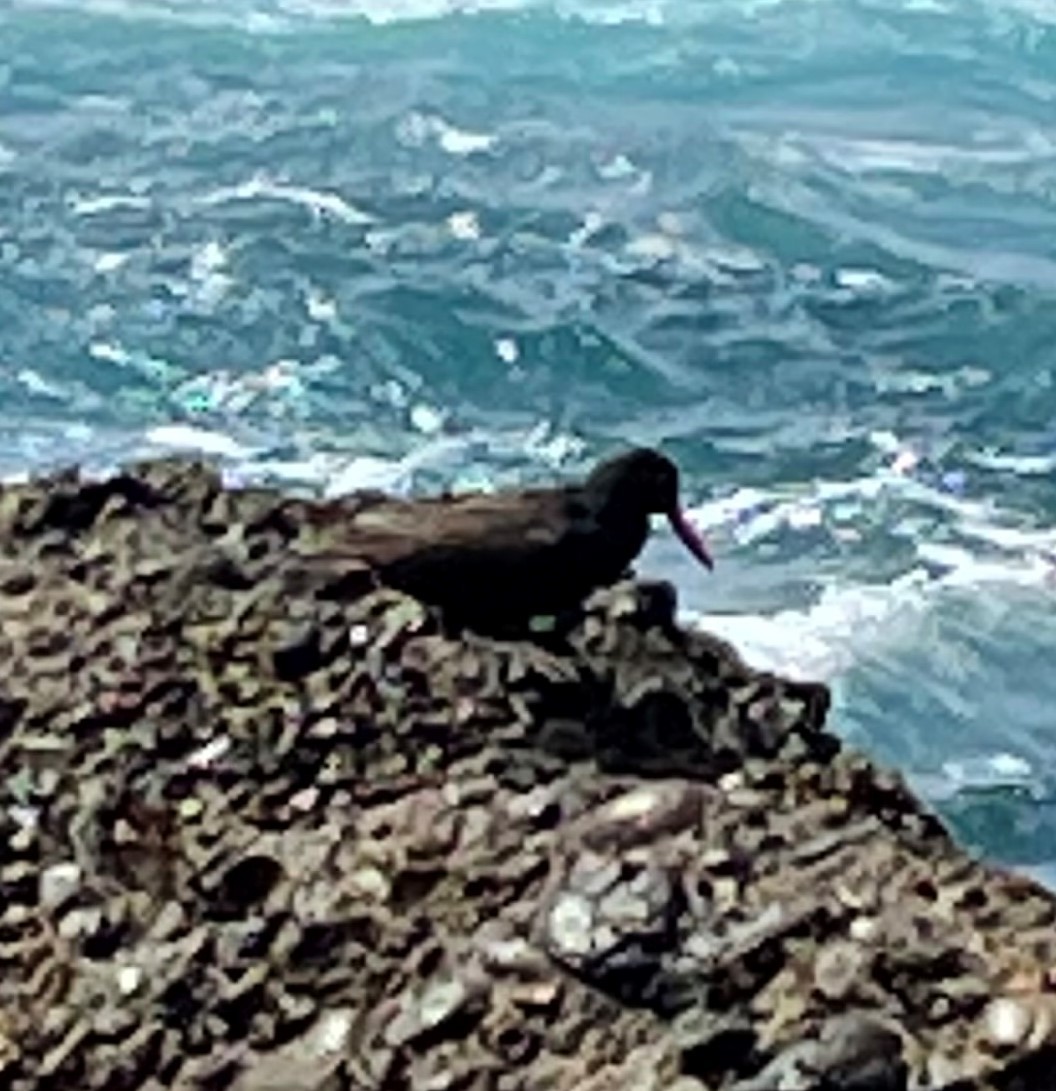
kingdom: Animalia
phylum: Chordata
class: Aves
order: Charadriiformes
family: Haematopodidae
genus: Haematopus
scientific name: Haematopus bachmani
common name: Black oystercatcher
